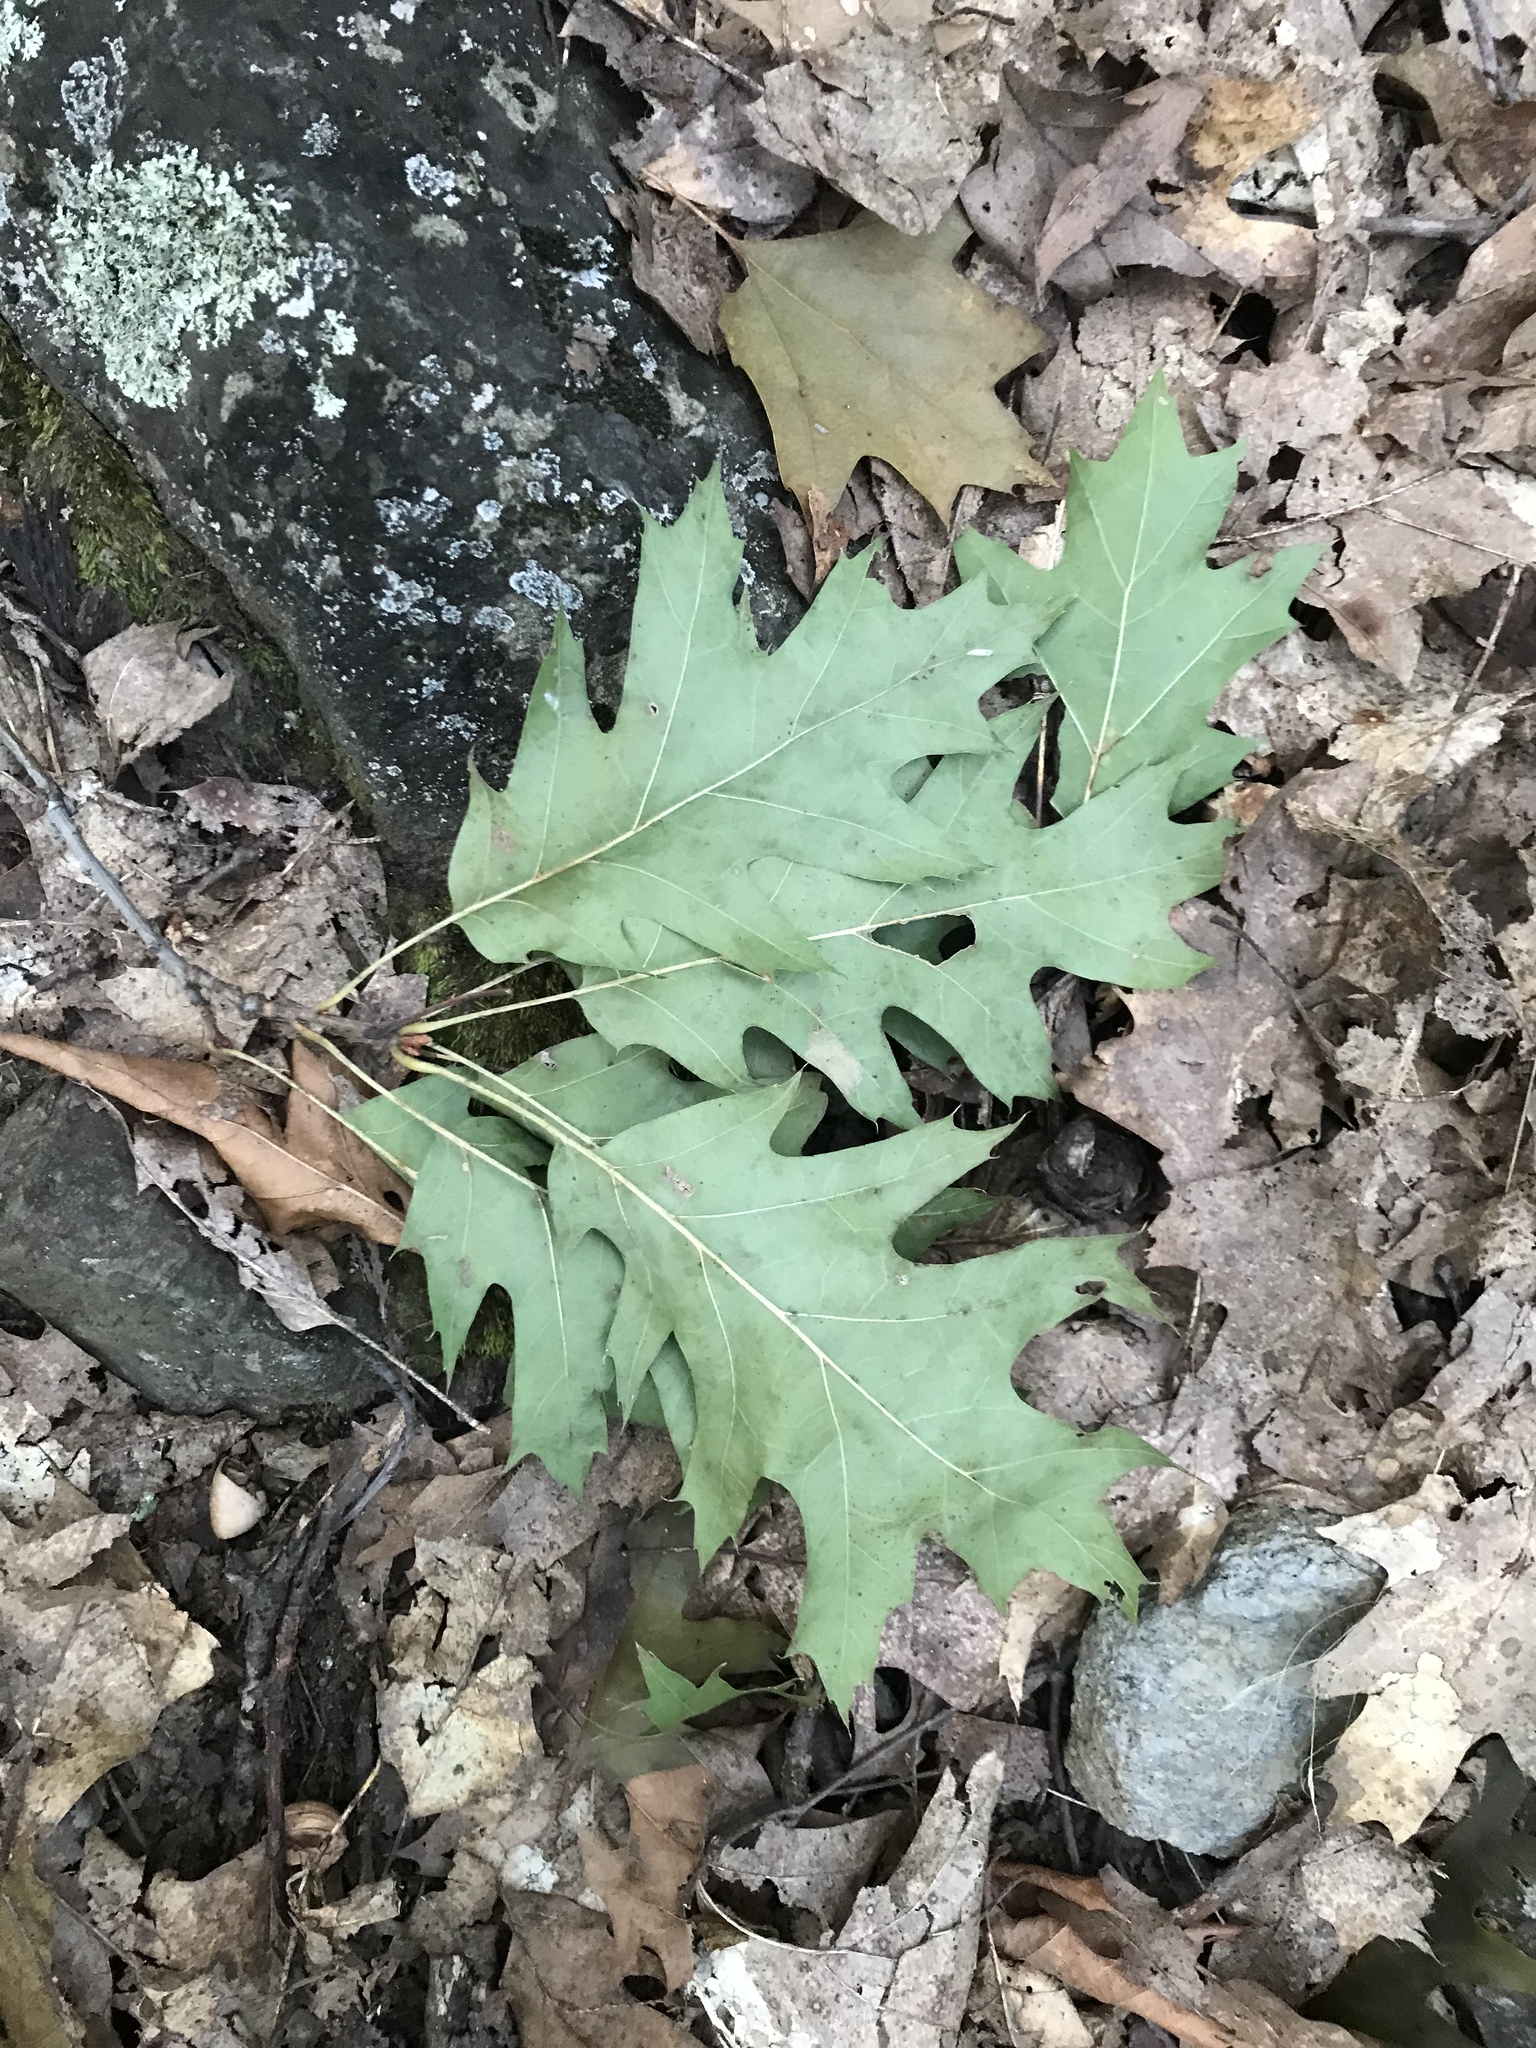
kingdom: Plantae
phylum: Tracheophyta
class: Magnoliopsida
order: Fagales
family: Fagaceae
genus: Quercus
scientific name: Quercus rubra
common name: Red oak
